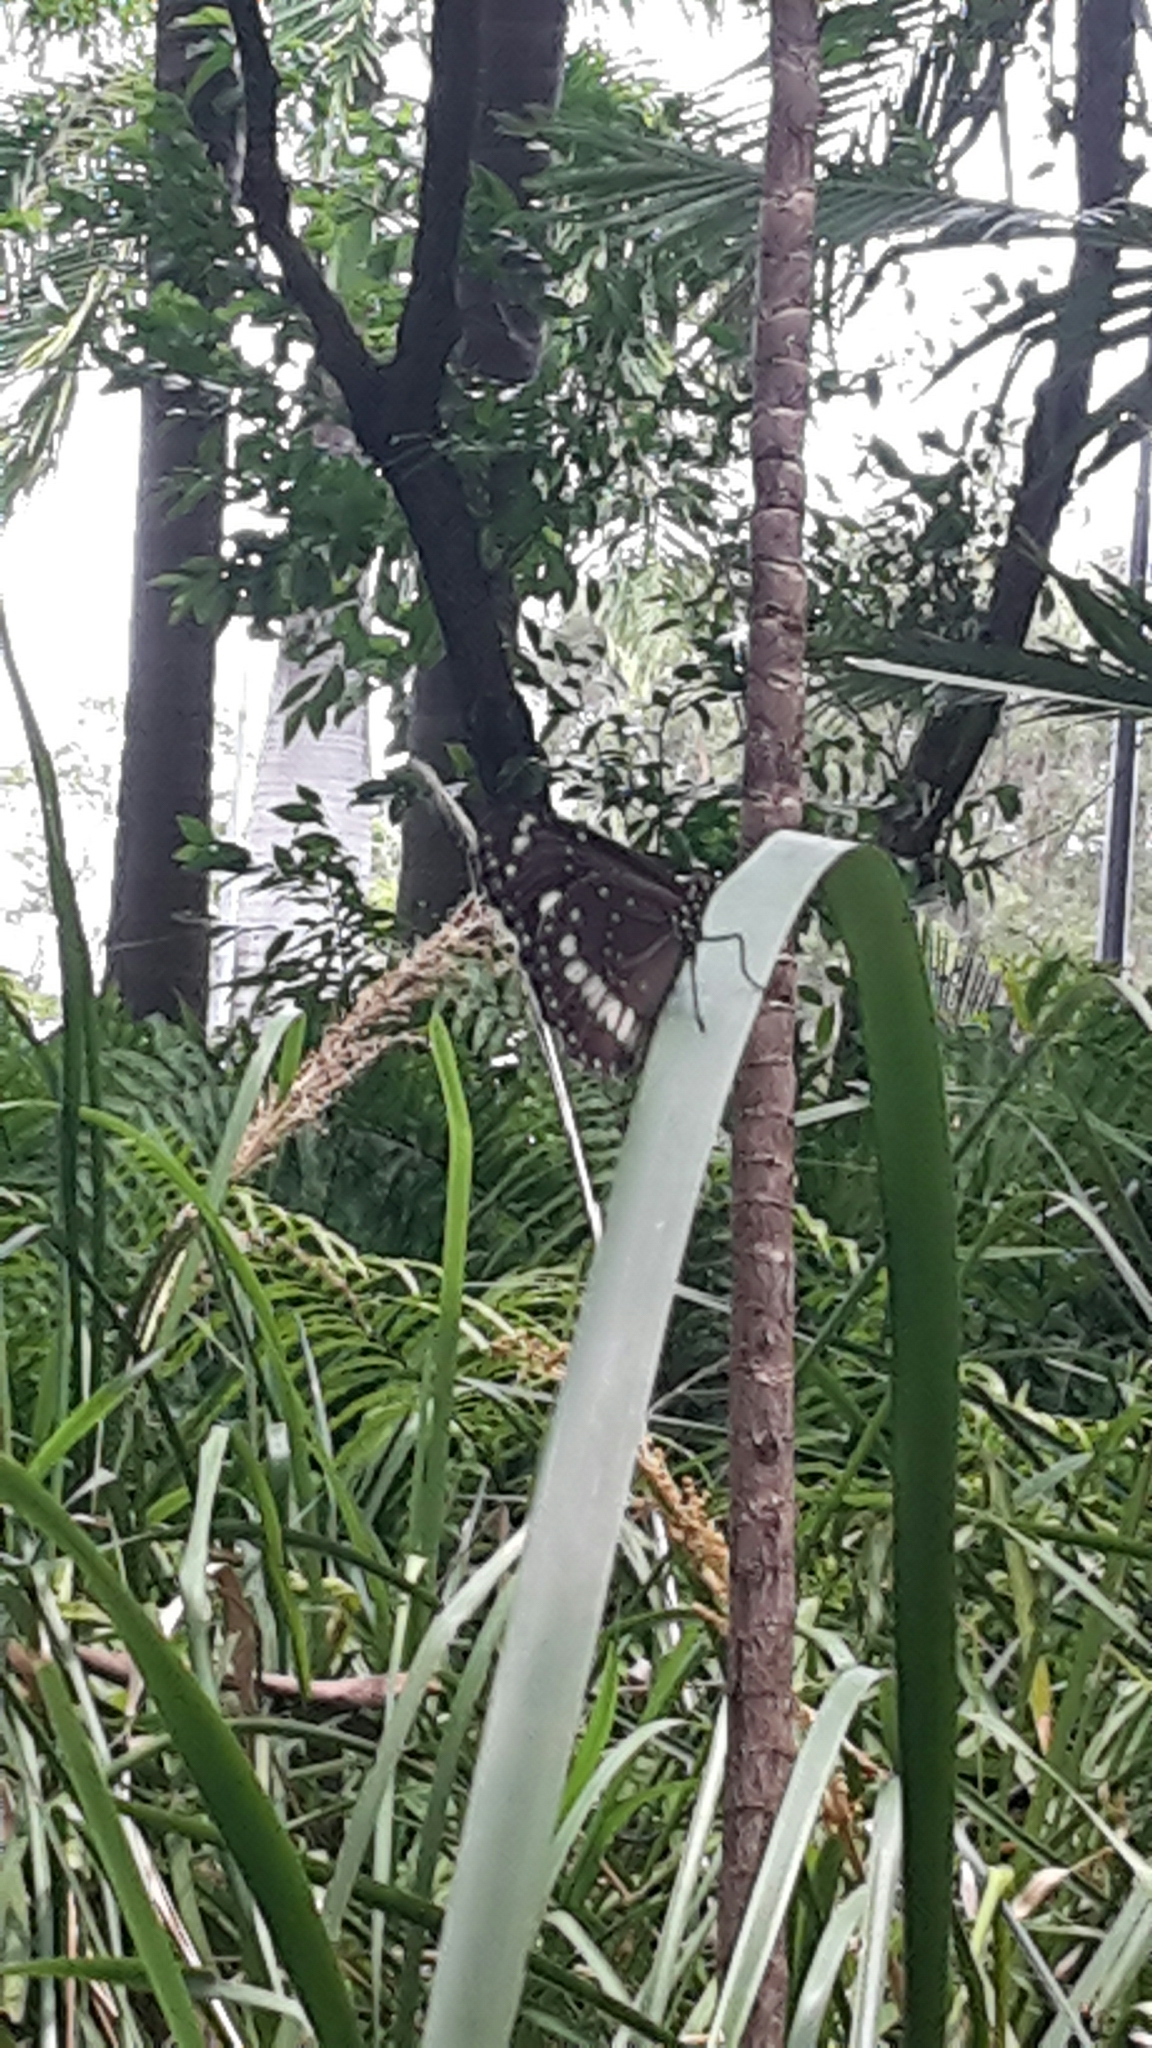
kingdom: Animalia
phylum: Arthropoda
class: Insecta
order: Lepidoptera
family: Nymphalidae
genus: Euploea
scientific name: Euploea core
